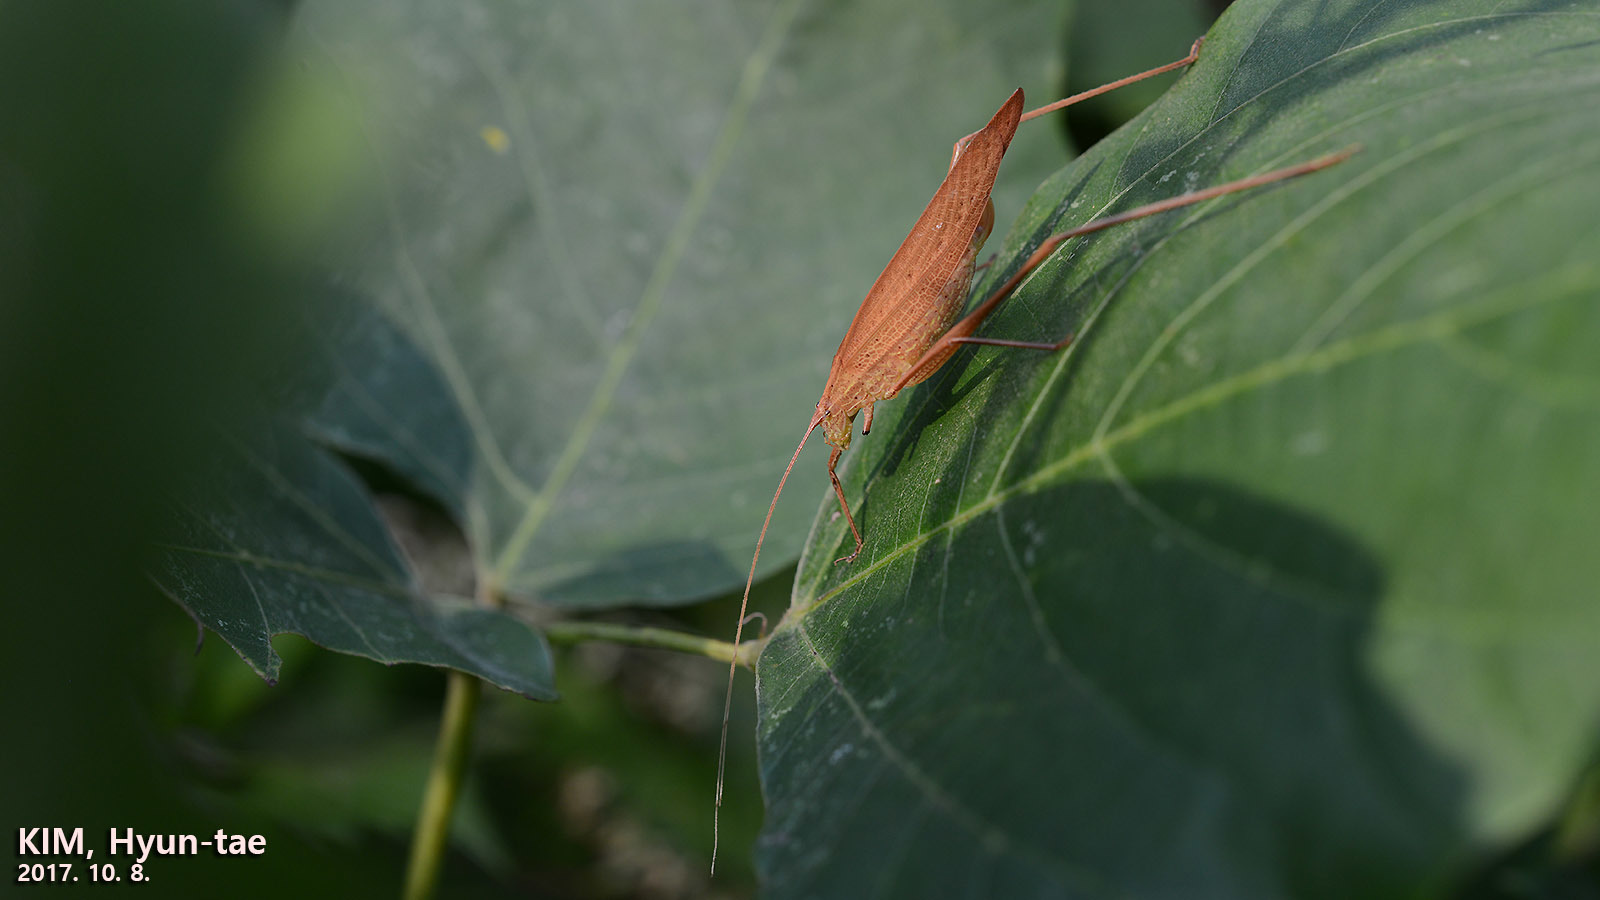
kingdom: Animalia
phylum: Arthropoda
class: Insecta
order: Orthoptera
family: Tettigoniidae
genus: Ducetia
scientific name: Ducetia japonica
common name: Pacific ducetia
